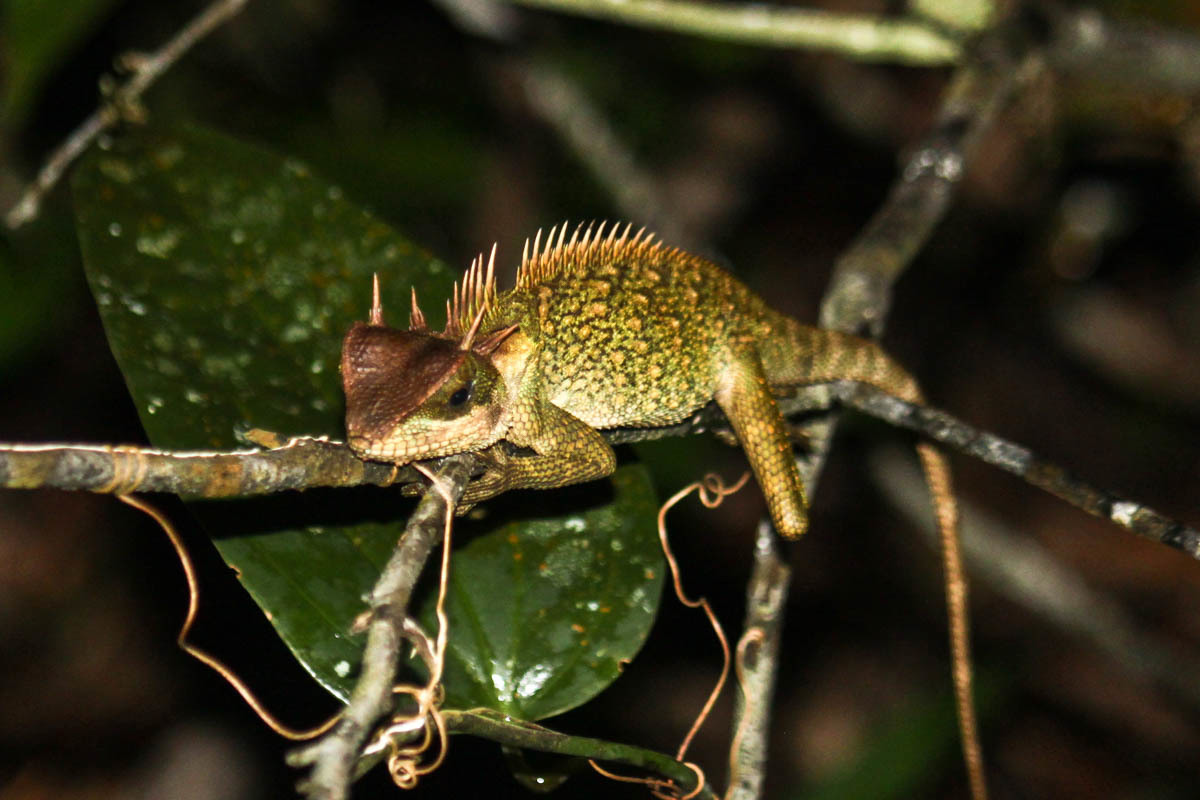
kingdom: Animalia
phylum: Chordata
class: Squamata
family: Agamidae
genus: Acanthosaura
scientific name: Acanthosaura cardamomensis
